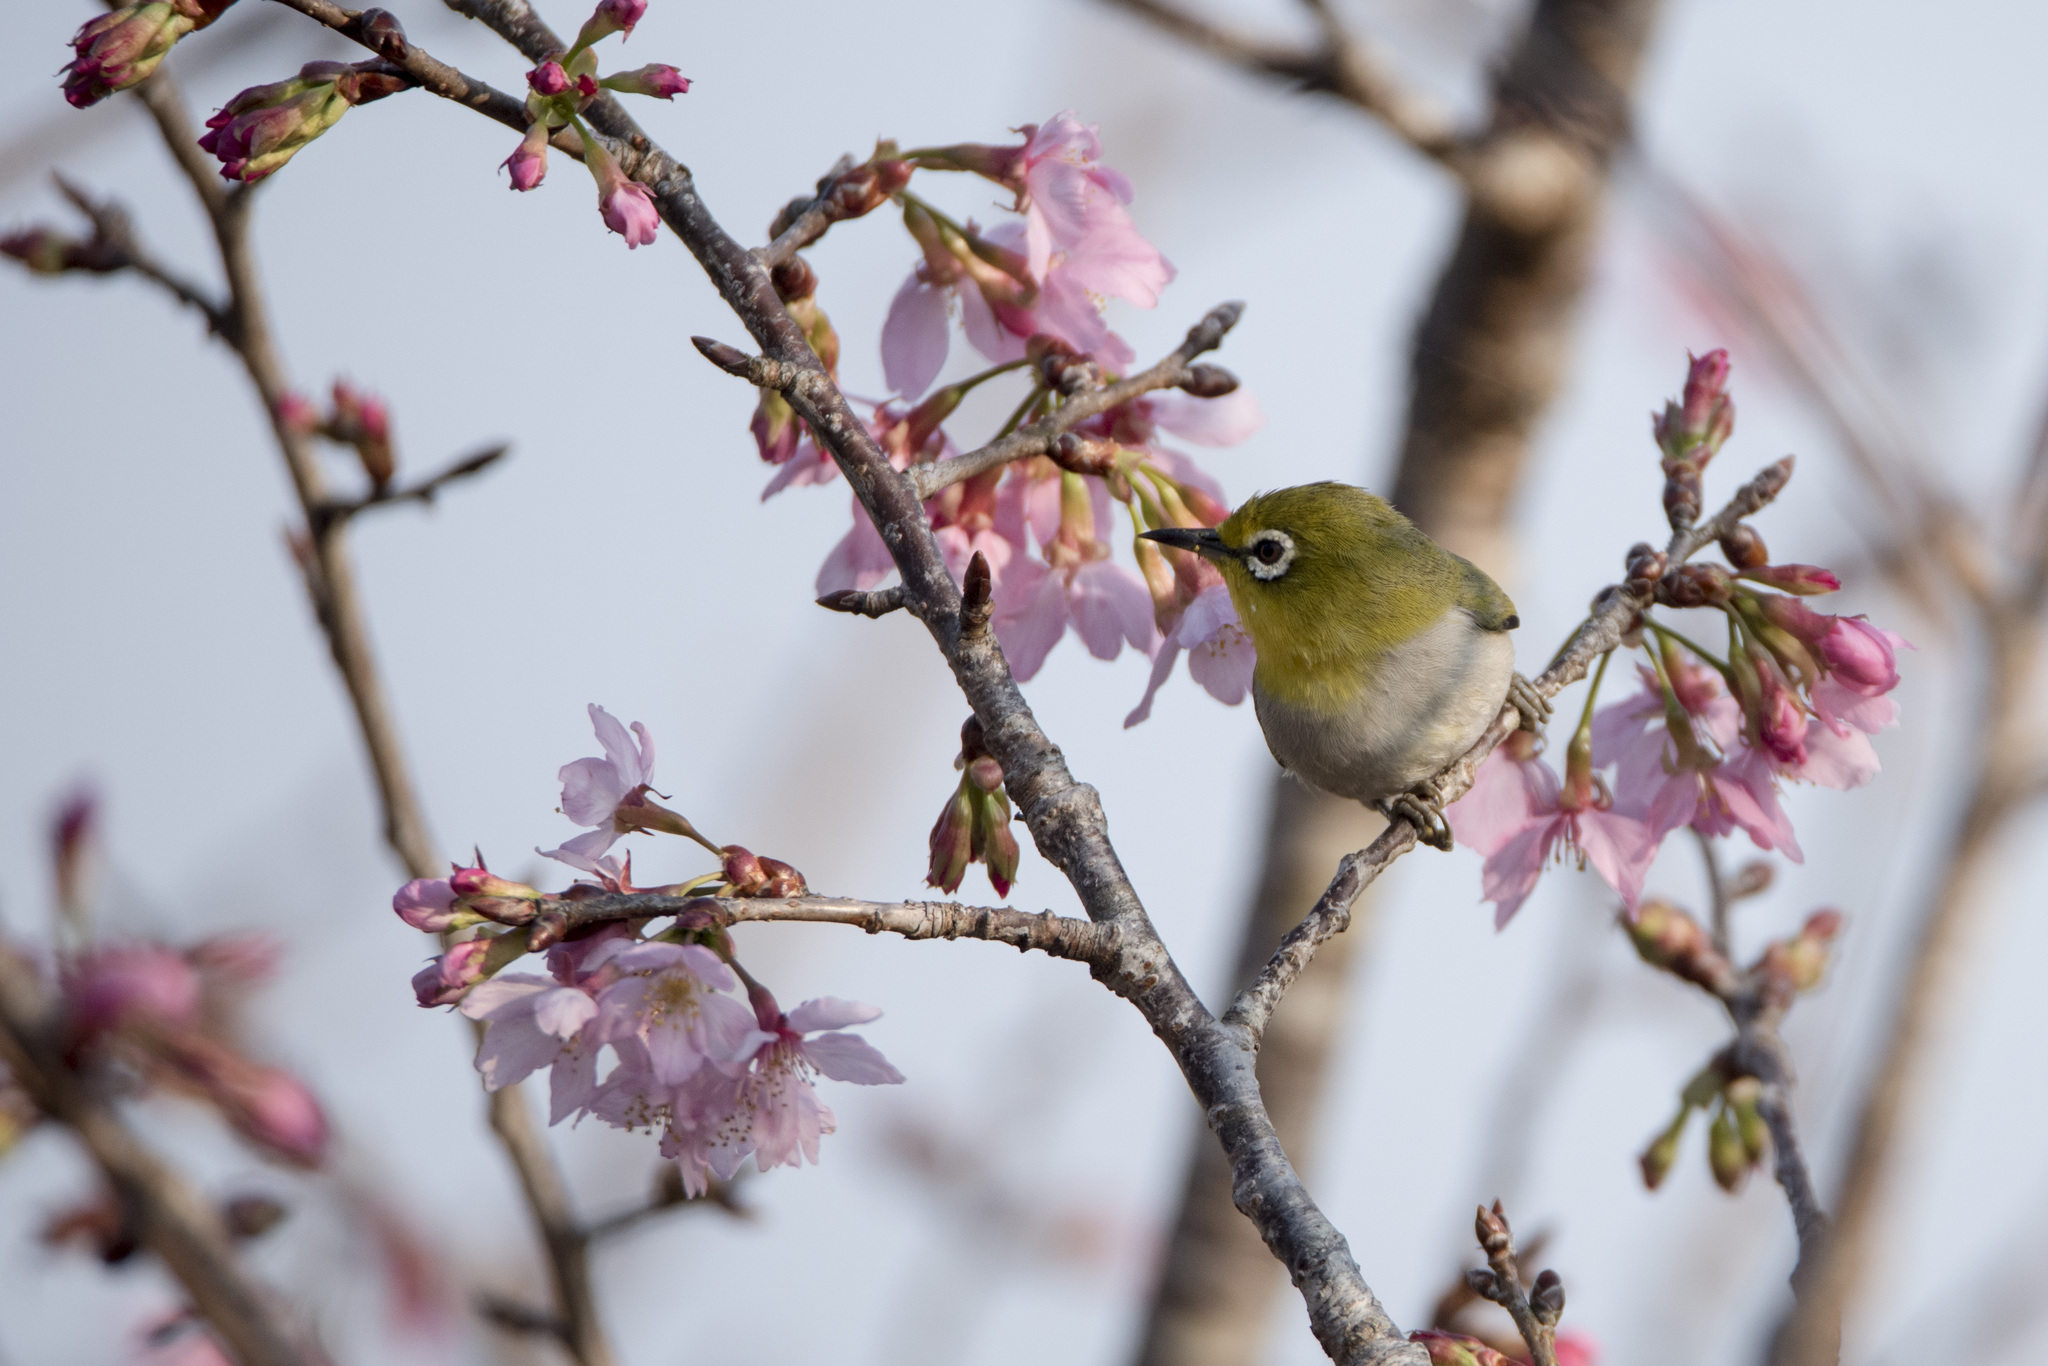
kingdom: Animalia
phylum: Chordata
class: Aves
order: Passeriformes
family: Zosteropidae
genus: Zosterops
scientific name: Zosterops simplex
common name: Swinhoe's white-eye
